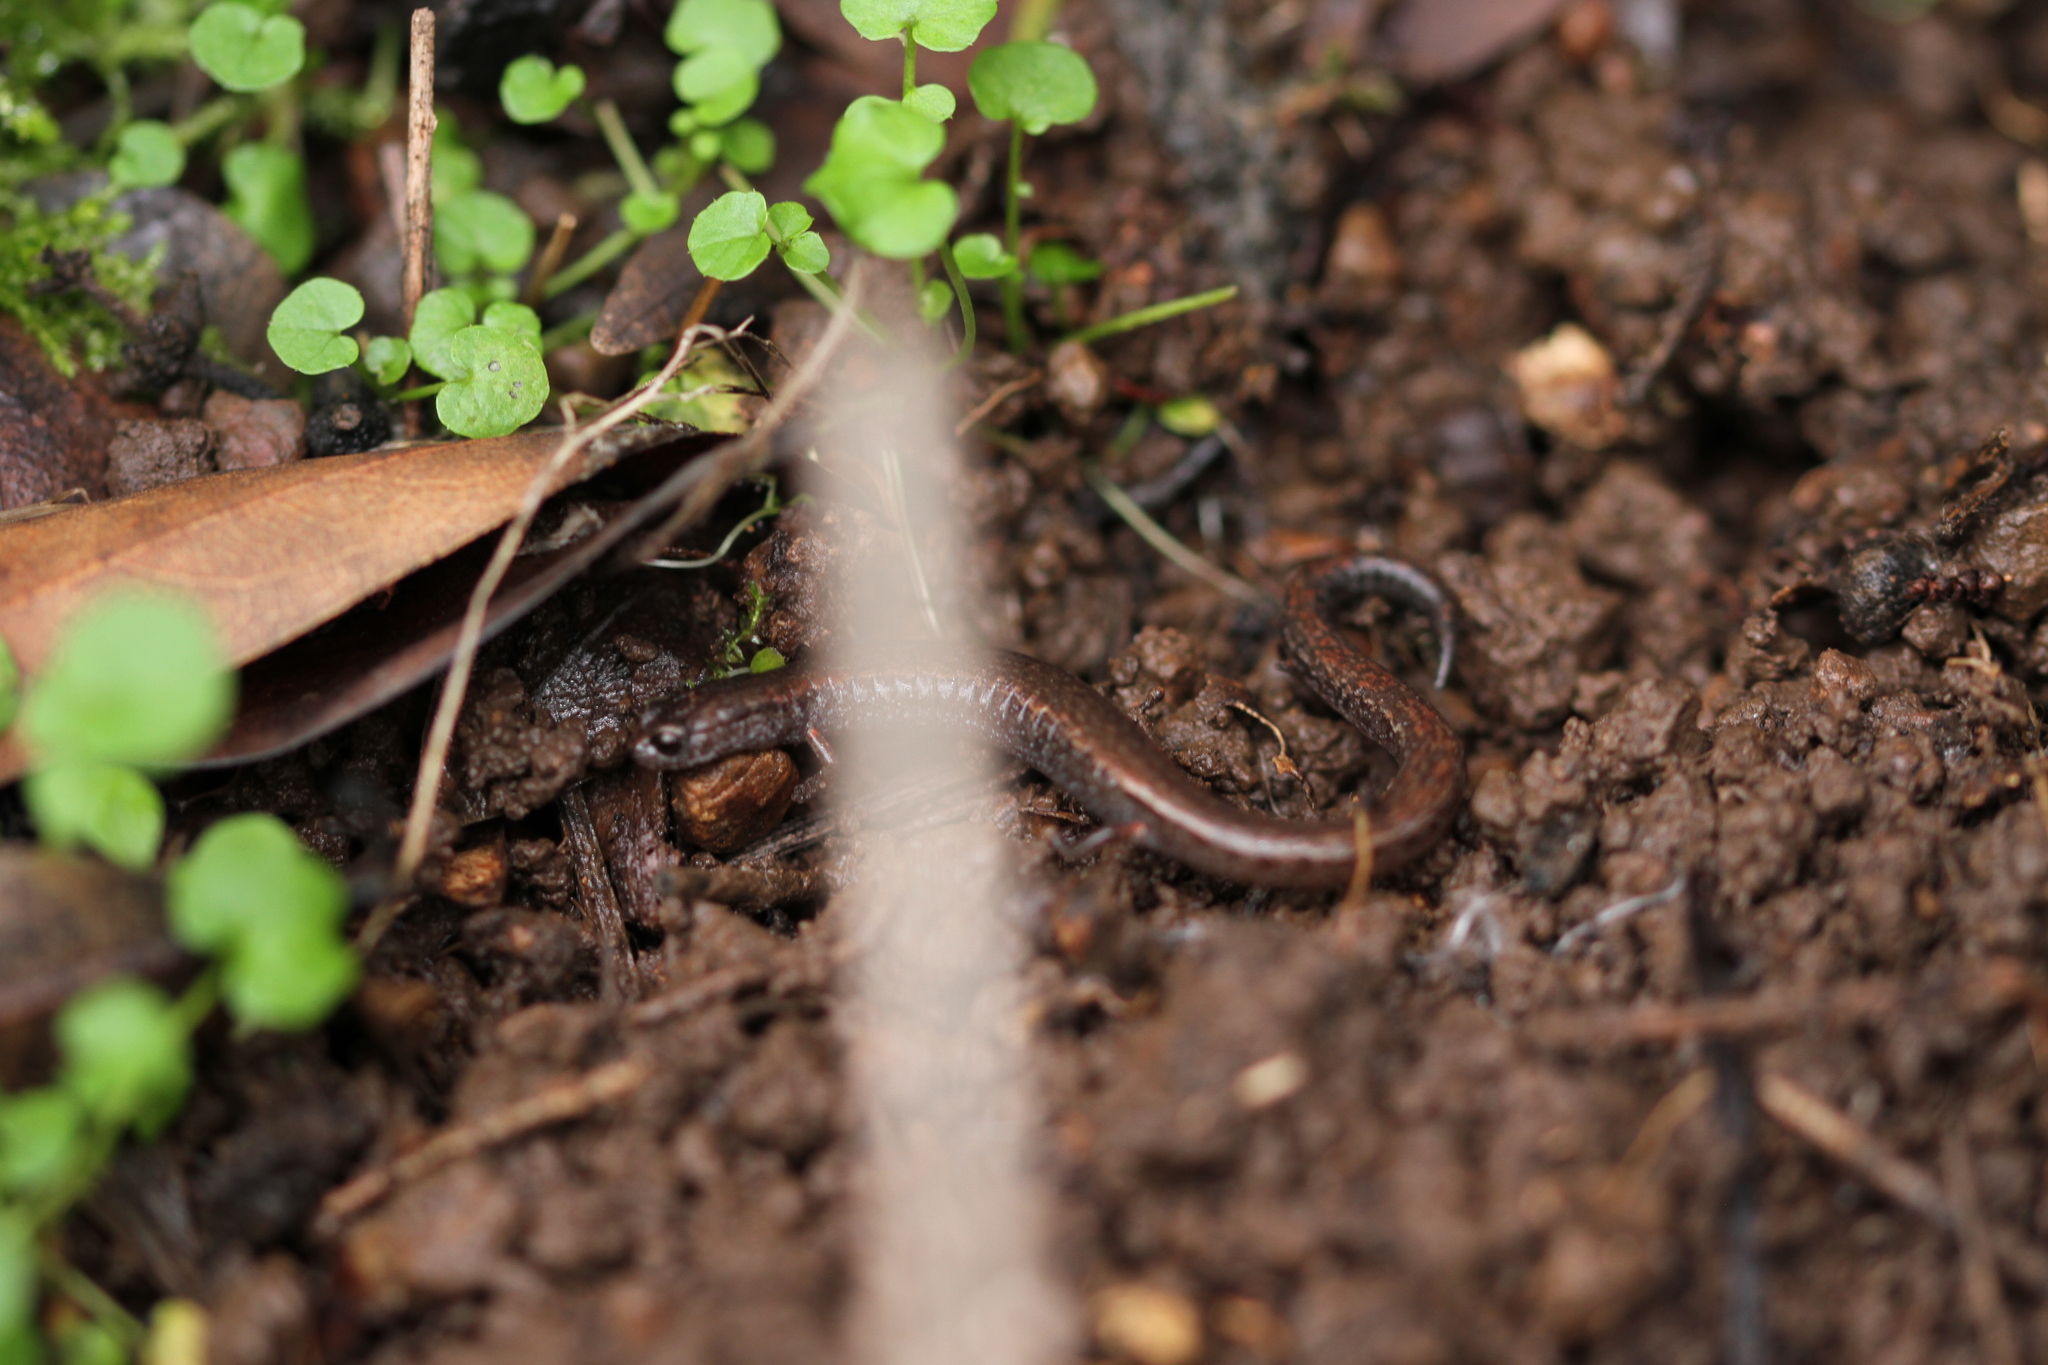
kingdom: Animalia
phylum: Chordata
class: Amphibia
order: Caudata
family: Plethodontidae
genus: Batrachoseps
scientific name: Batrachoseps attenuatus
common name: California slender salamander
